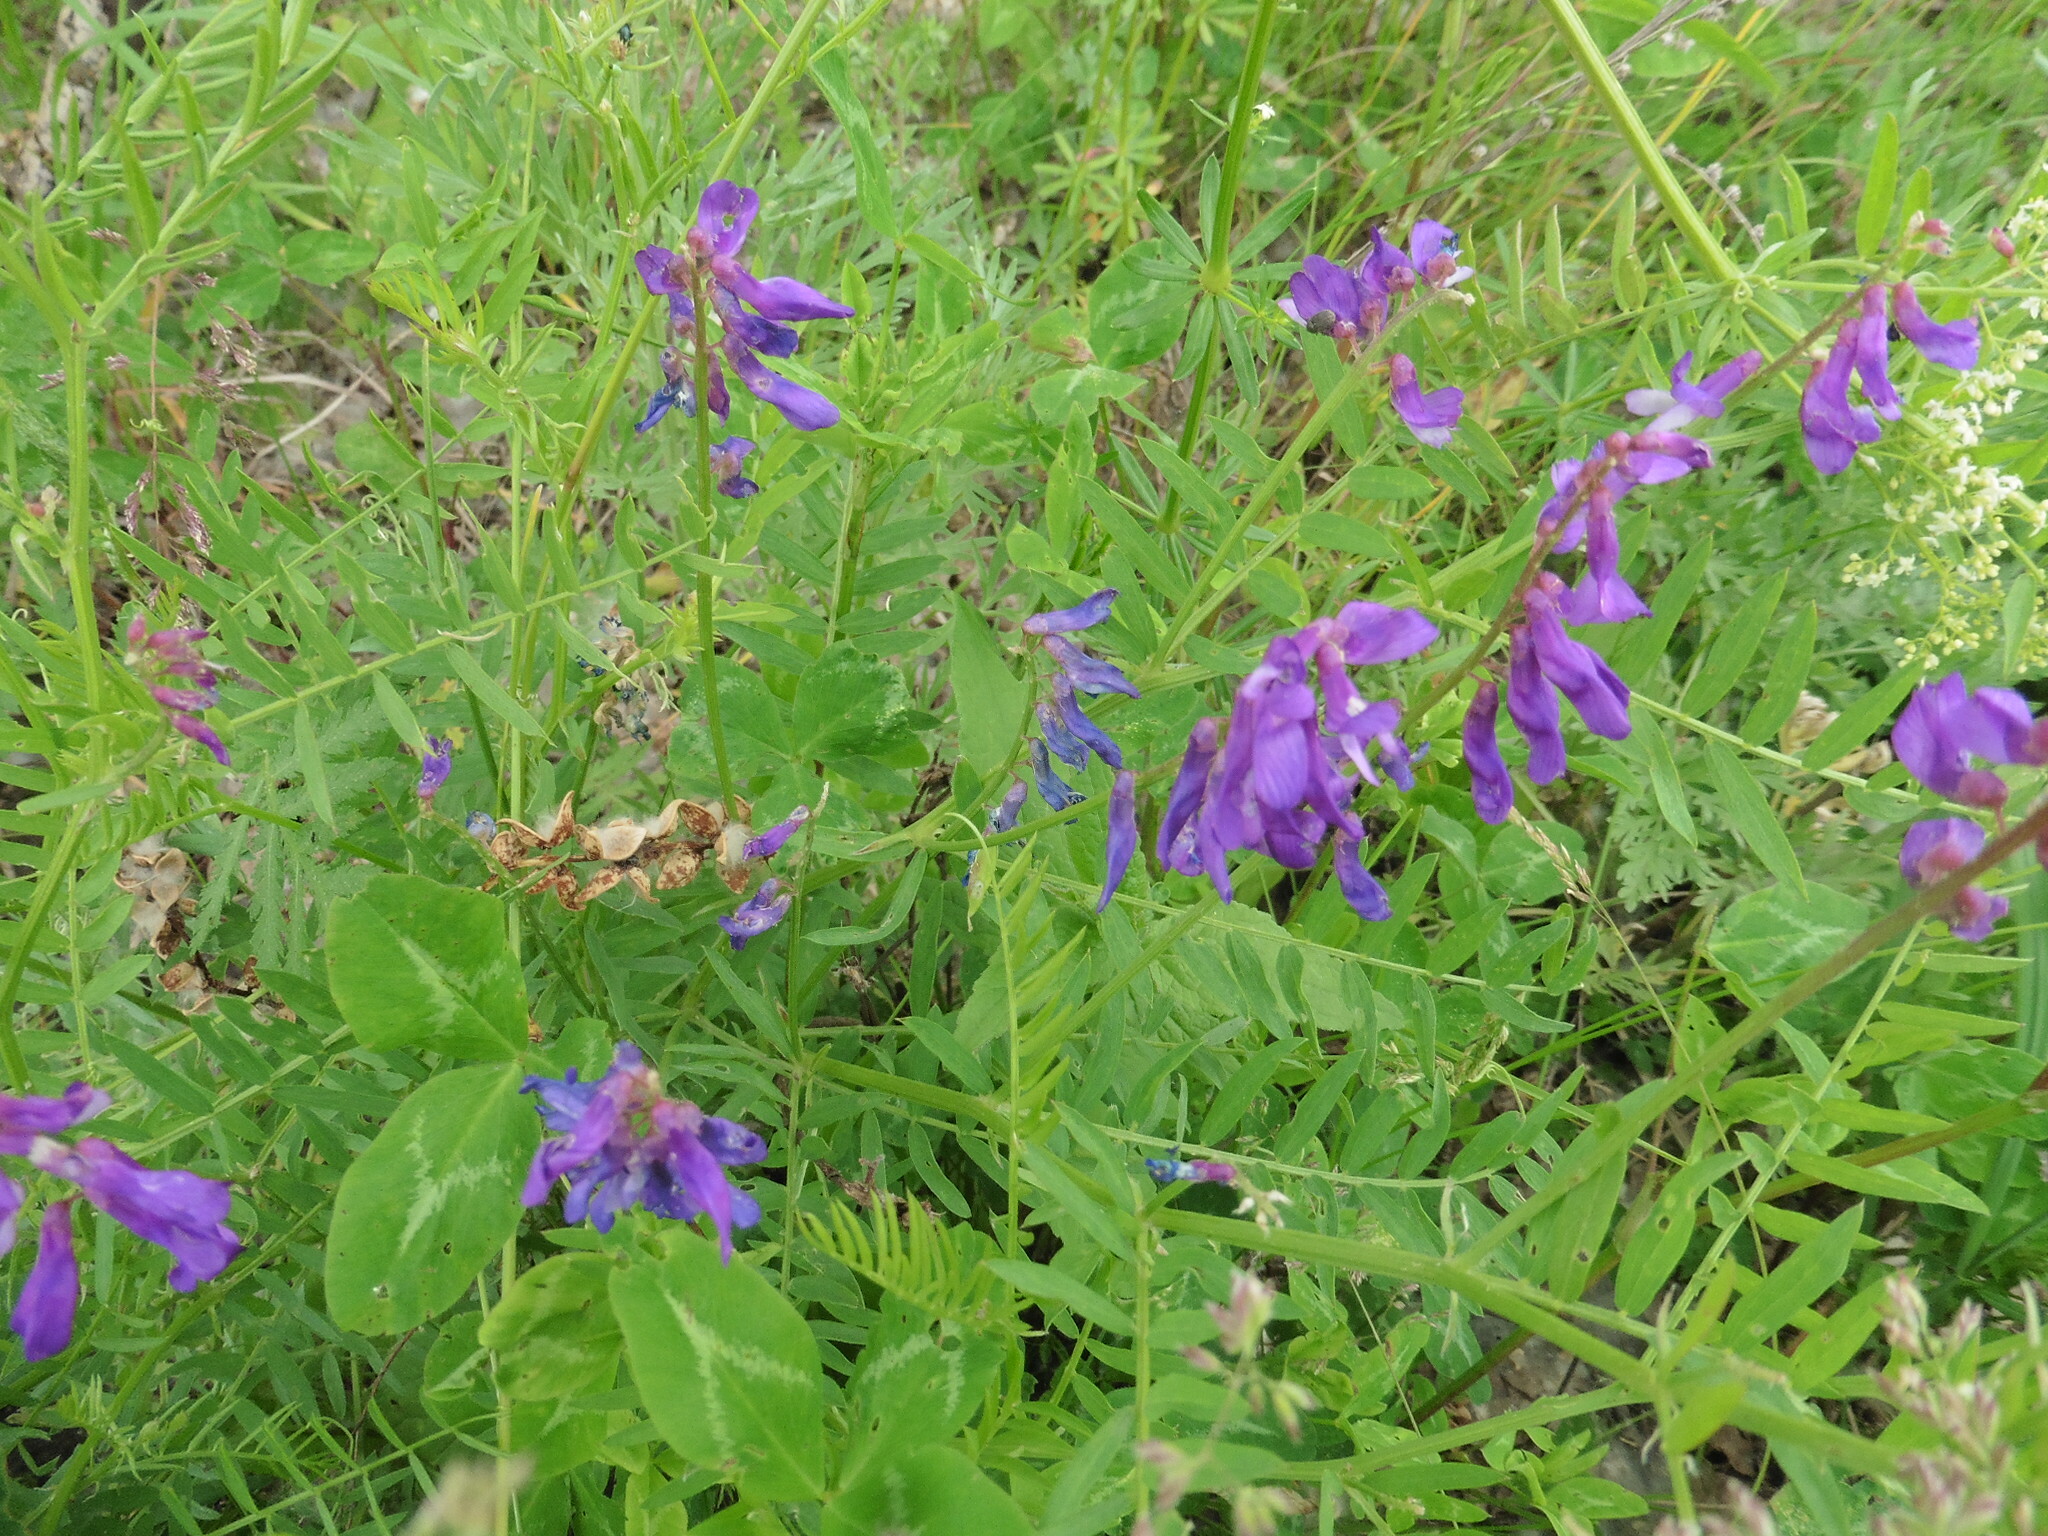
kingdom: Plantae
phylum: Tracheophyta
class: Magnoliopsida
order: Fabales
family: Fabaceae
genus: Vicia
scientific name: Vicia tenuifolia
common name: Fine-leaved vetch
